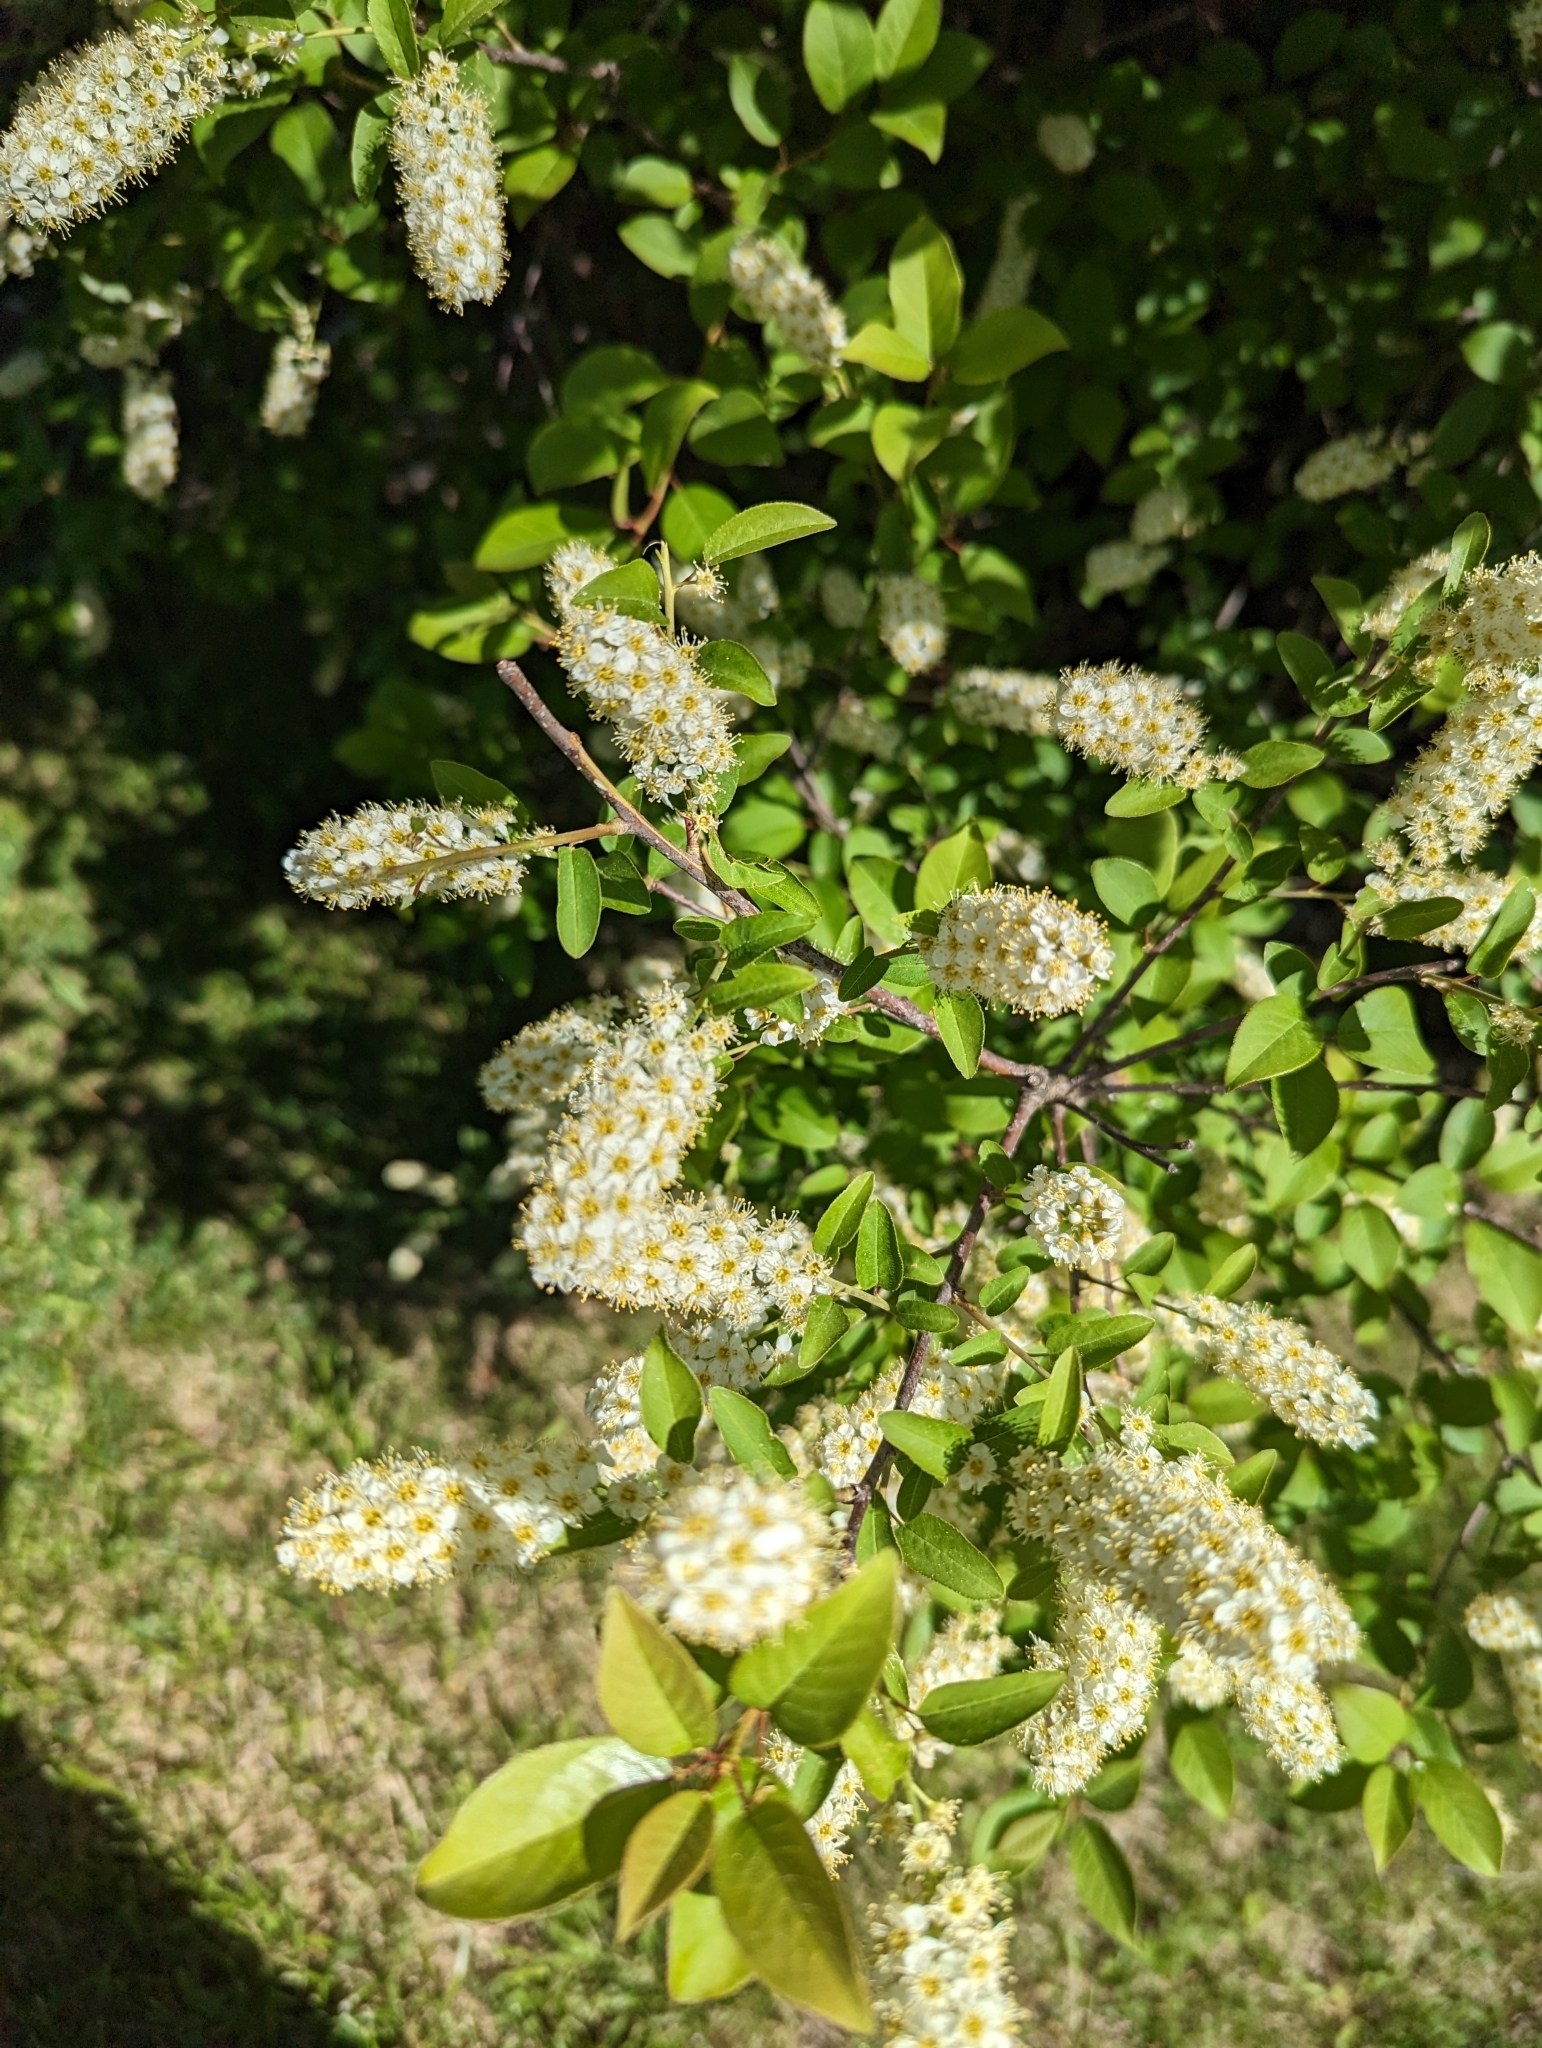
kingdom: Plantae
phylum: Tracheophyta
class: Magnoliopsida
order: Rosales
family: Rosaceae
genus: Prunus
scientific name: Prunus virginiana
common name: Chokecherry
